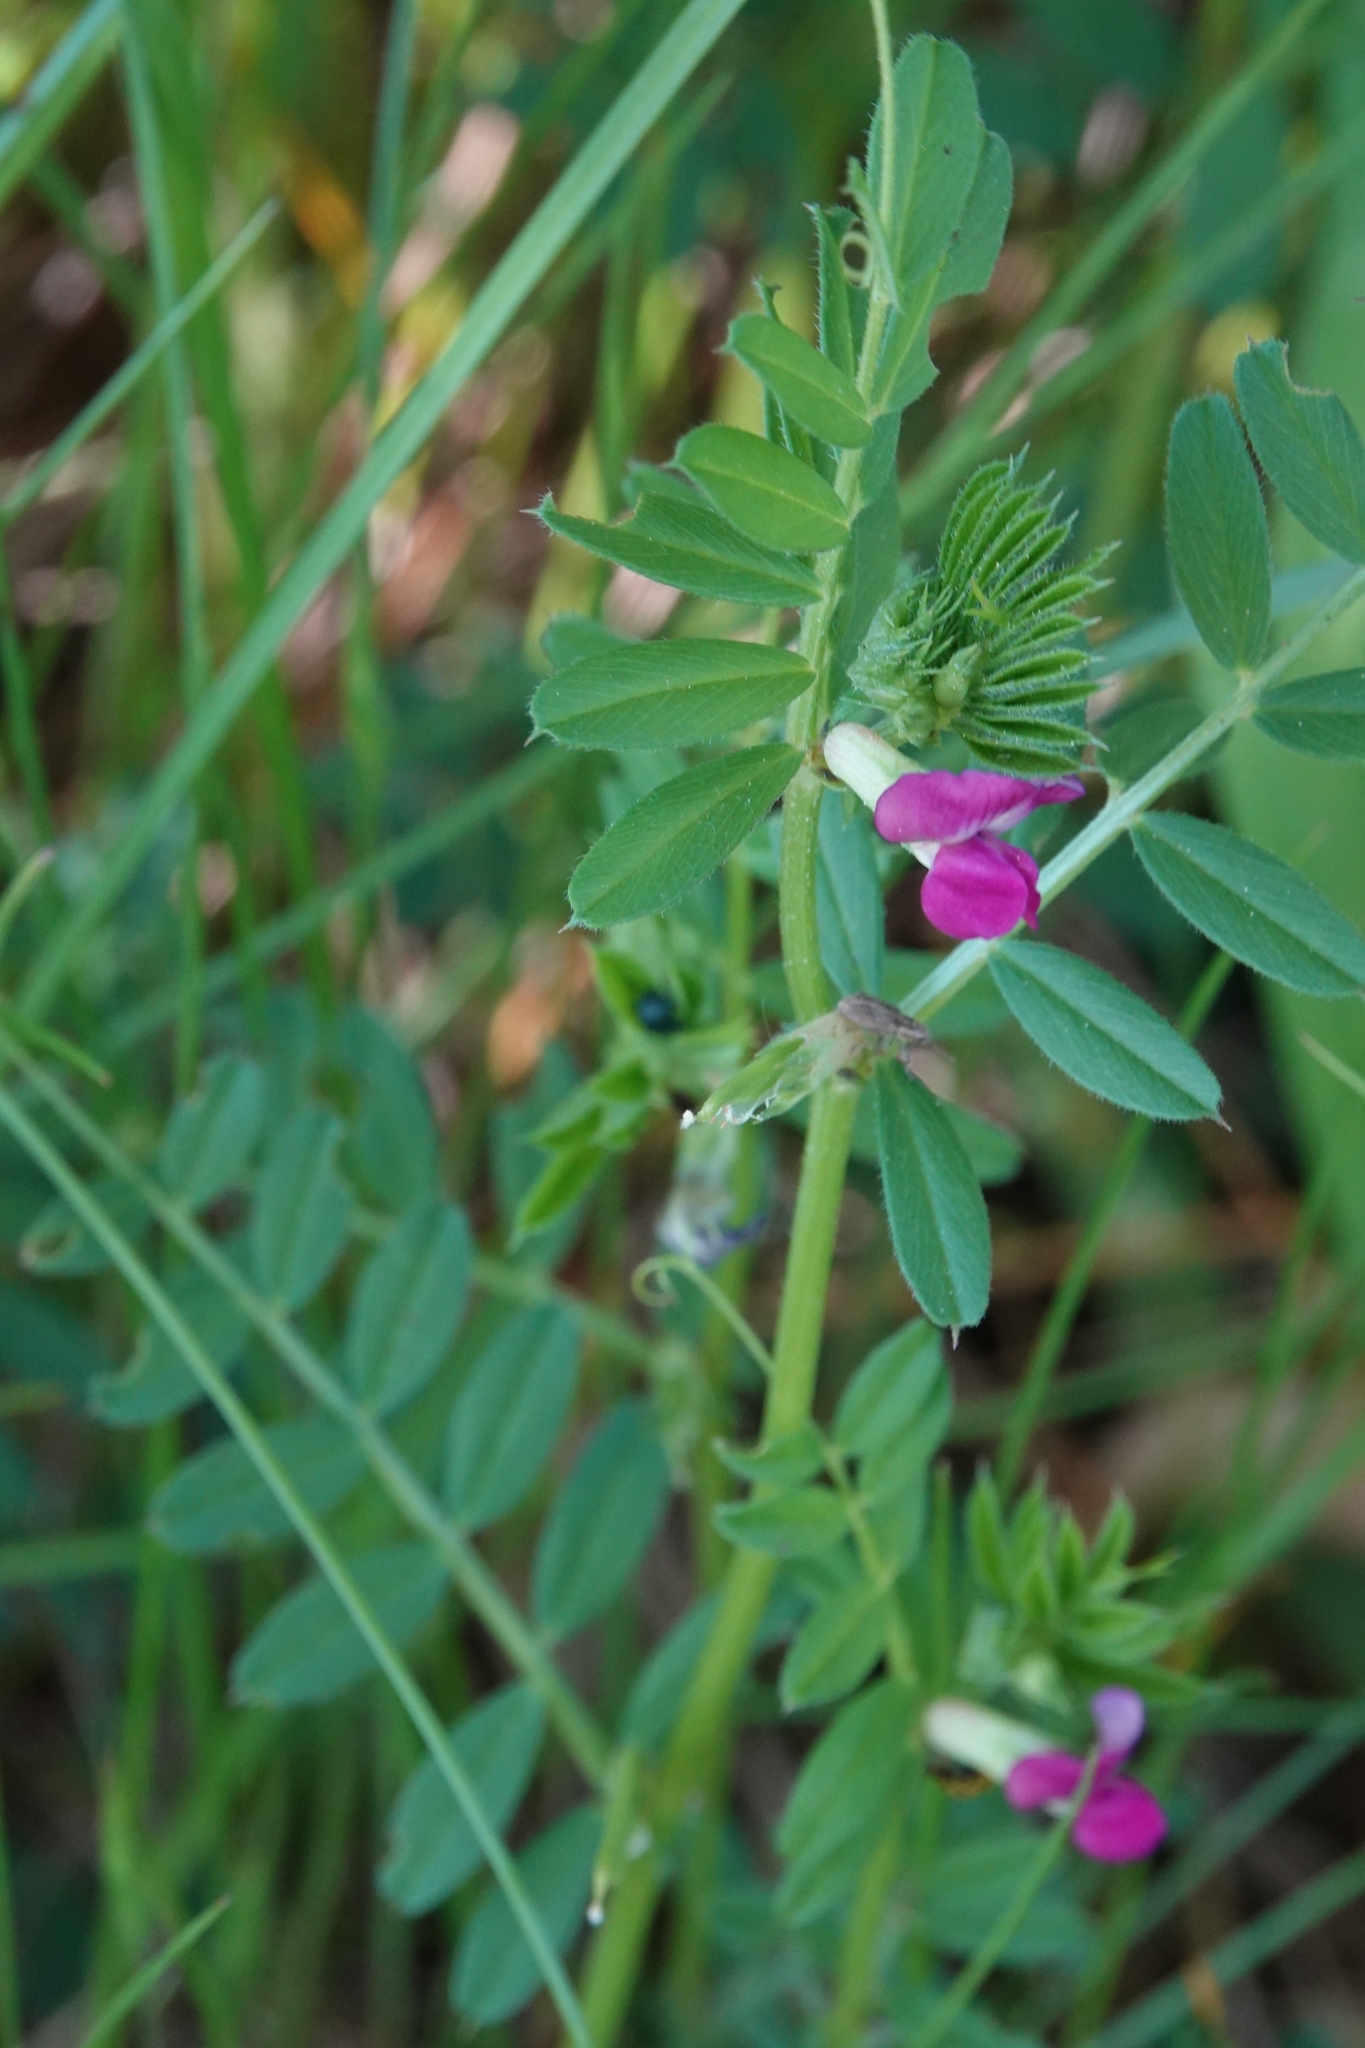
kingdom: Plantae
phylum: Tracheophyta
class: Magnoliopsida
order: Fabales
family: Fabaceae
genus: Vicia
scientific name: Vicia sativa
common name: Garden vetch
